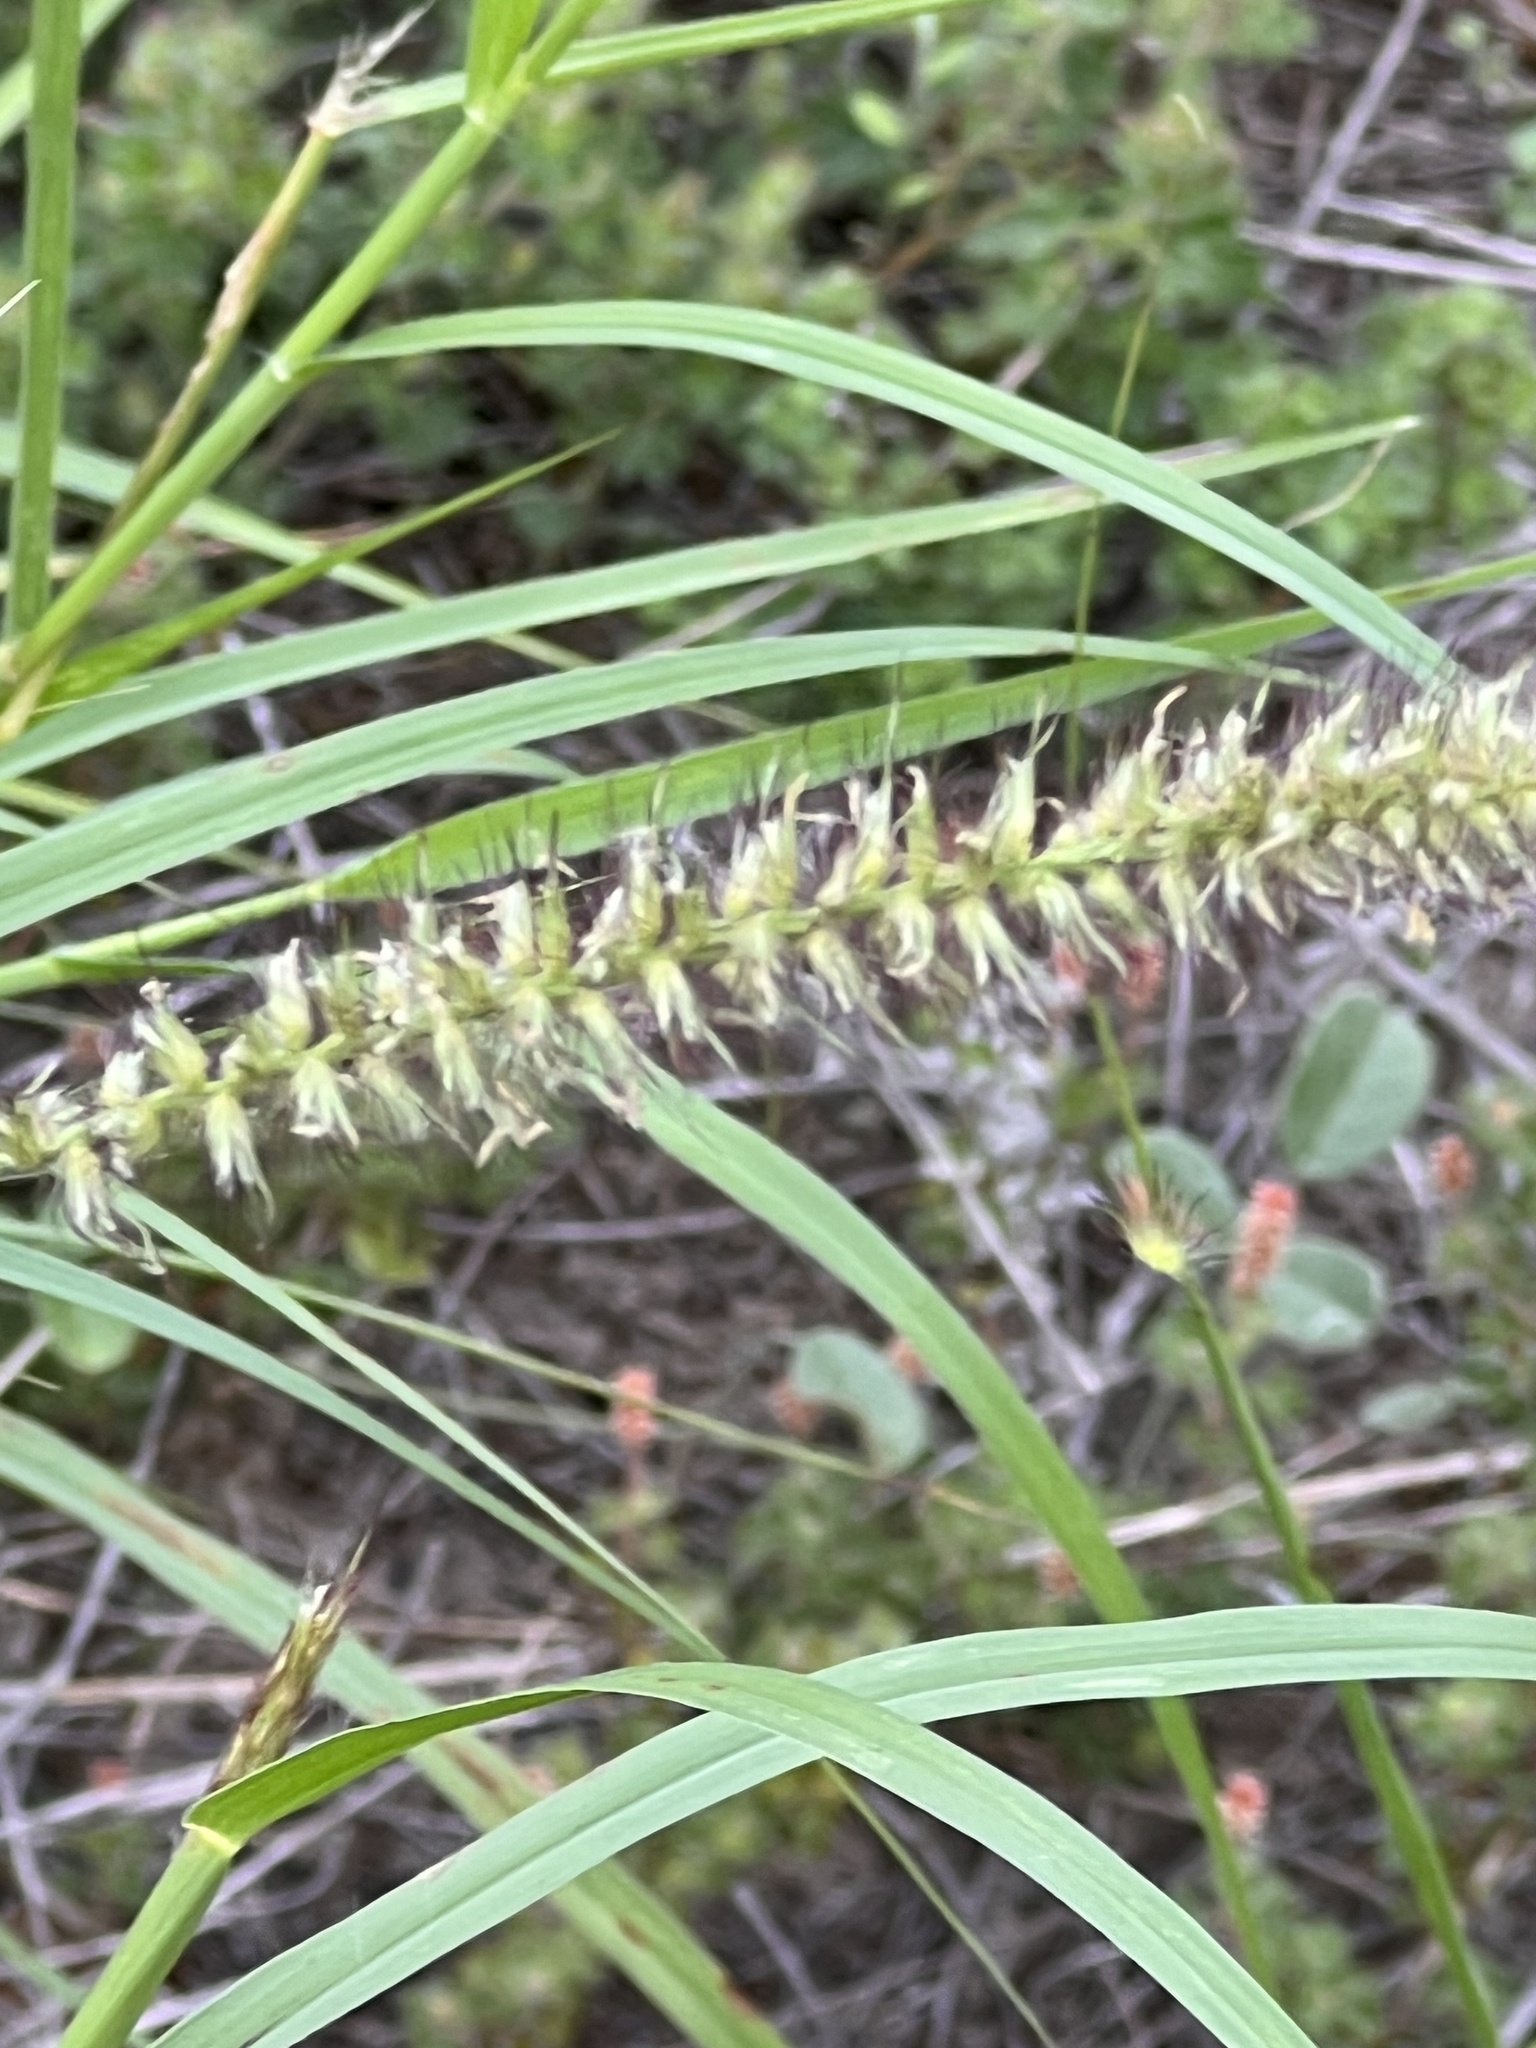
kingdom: Plantae
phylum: Tracheophyta
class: Liliopsida
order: Poales
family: Poaceae
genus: Cenchrus
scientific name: Cenchrus ciliaris
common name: Buffelgrass
